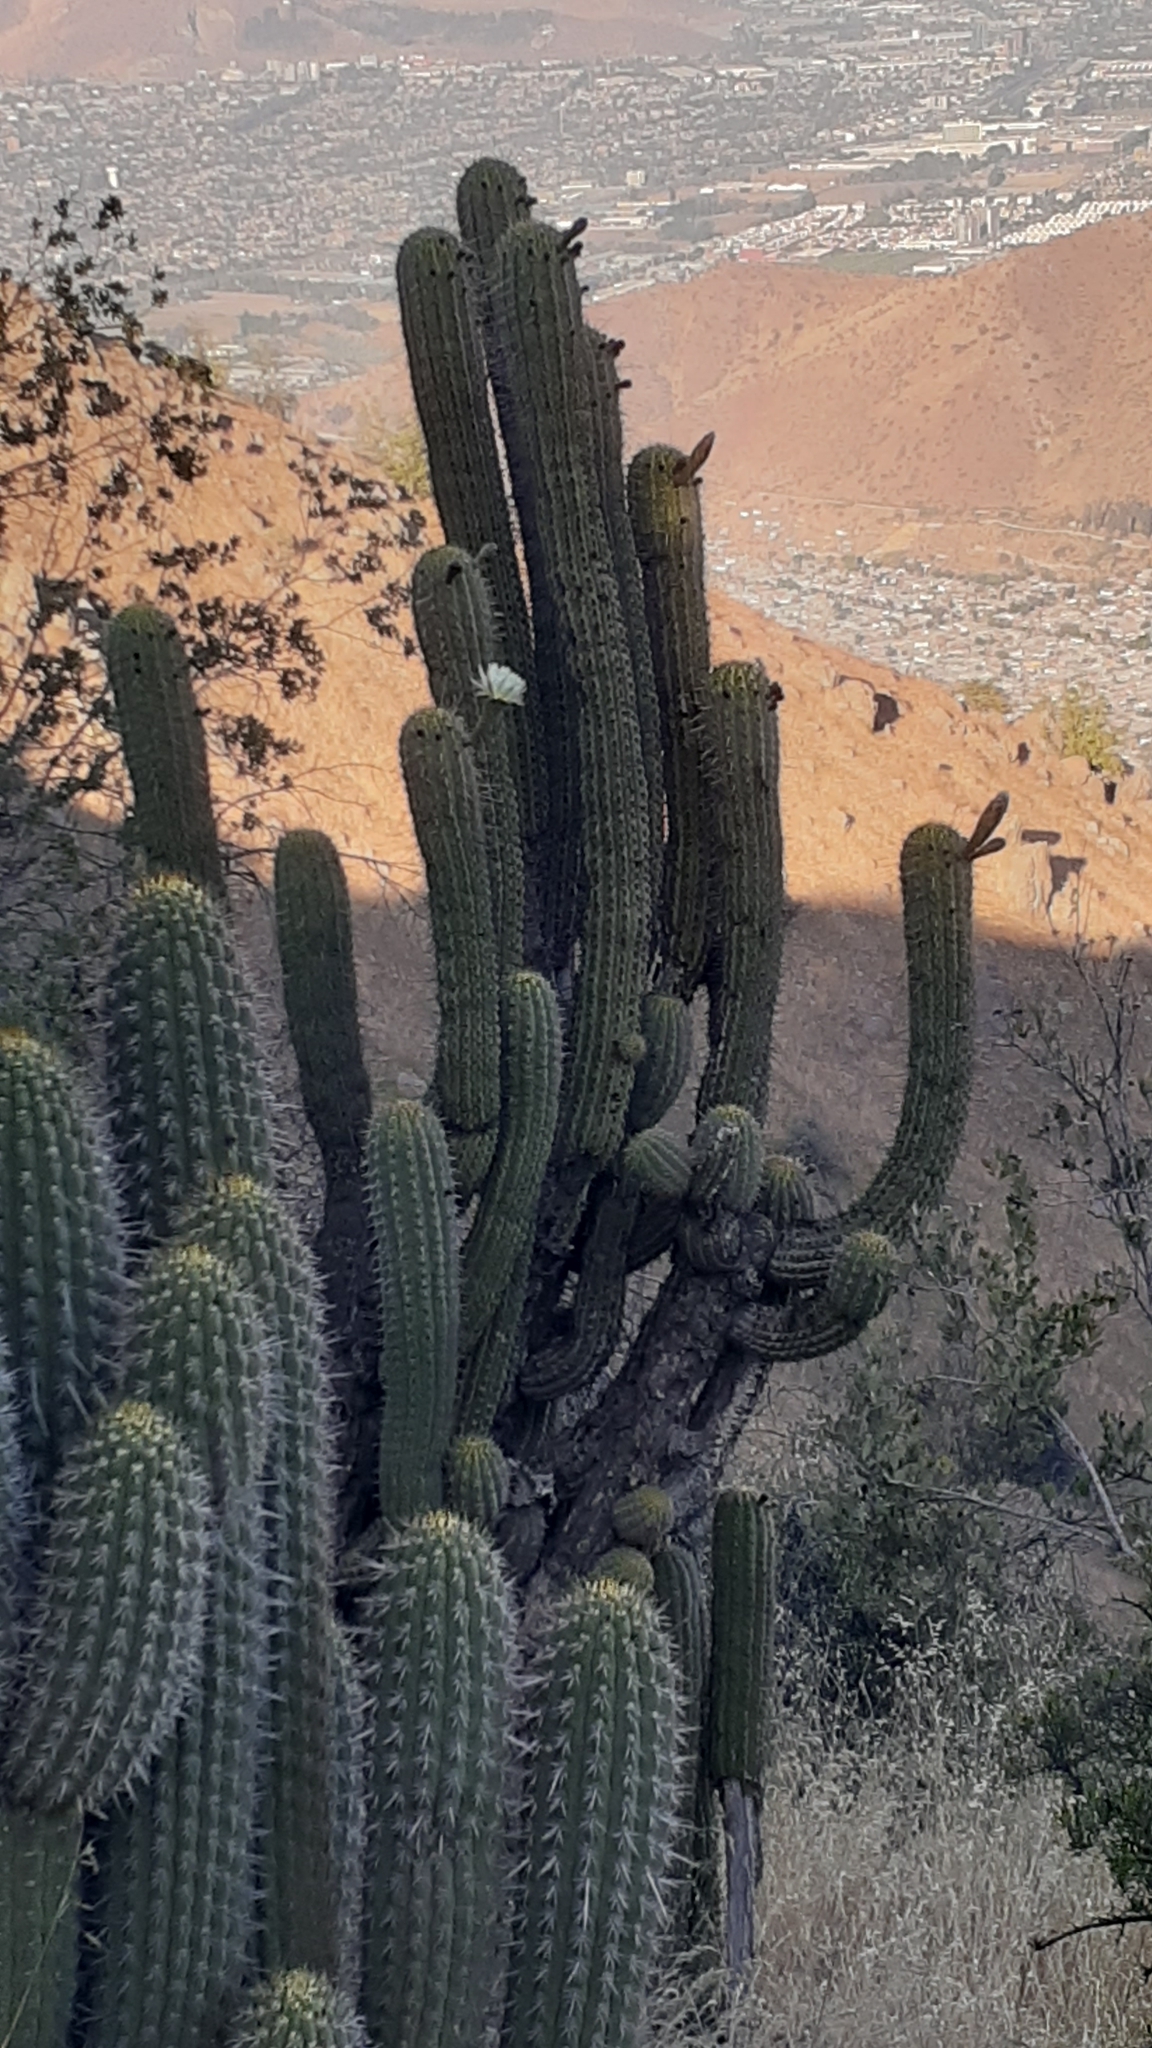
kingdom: Plantae
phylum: Tracheophyta
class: Magnoliopsida
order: Caryophyllales
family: Cactaceae
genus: Leucostele
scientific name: Leucostele chiloensis
